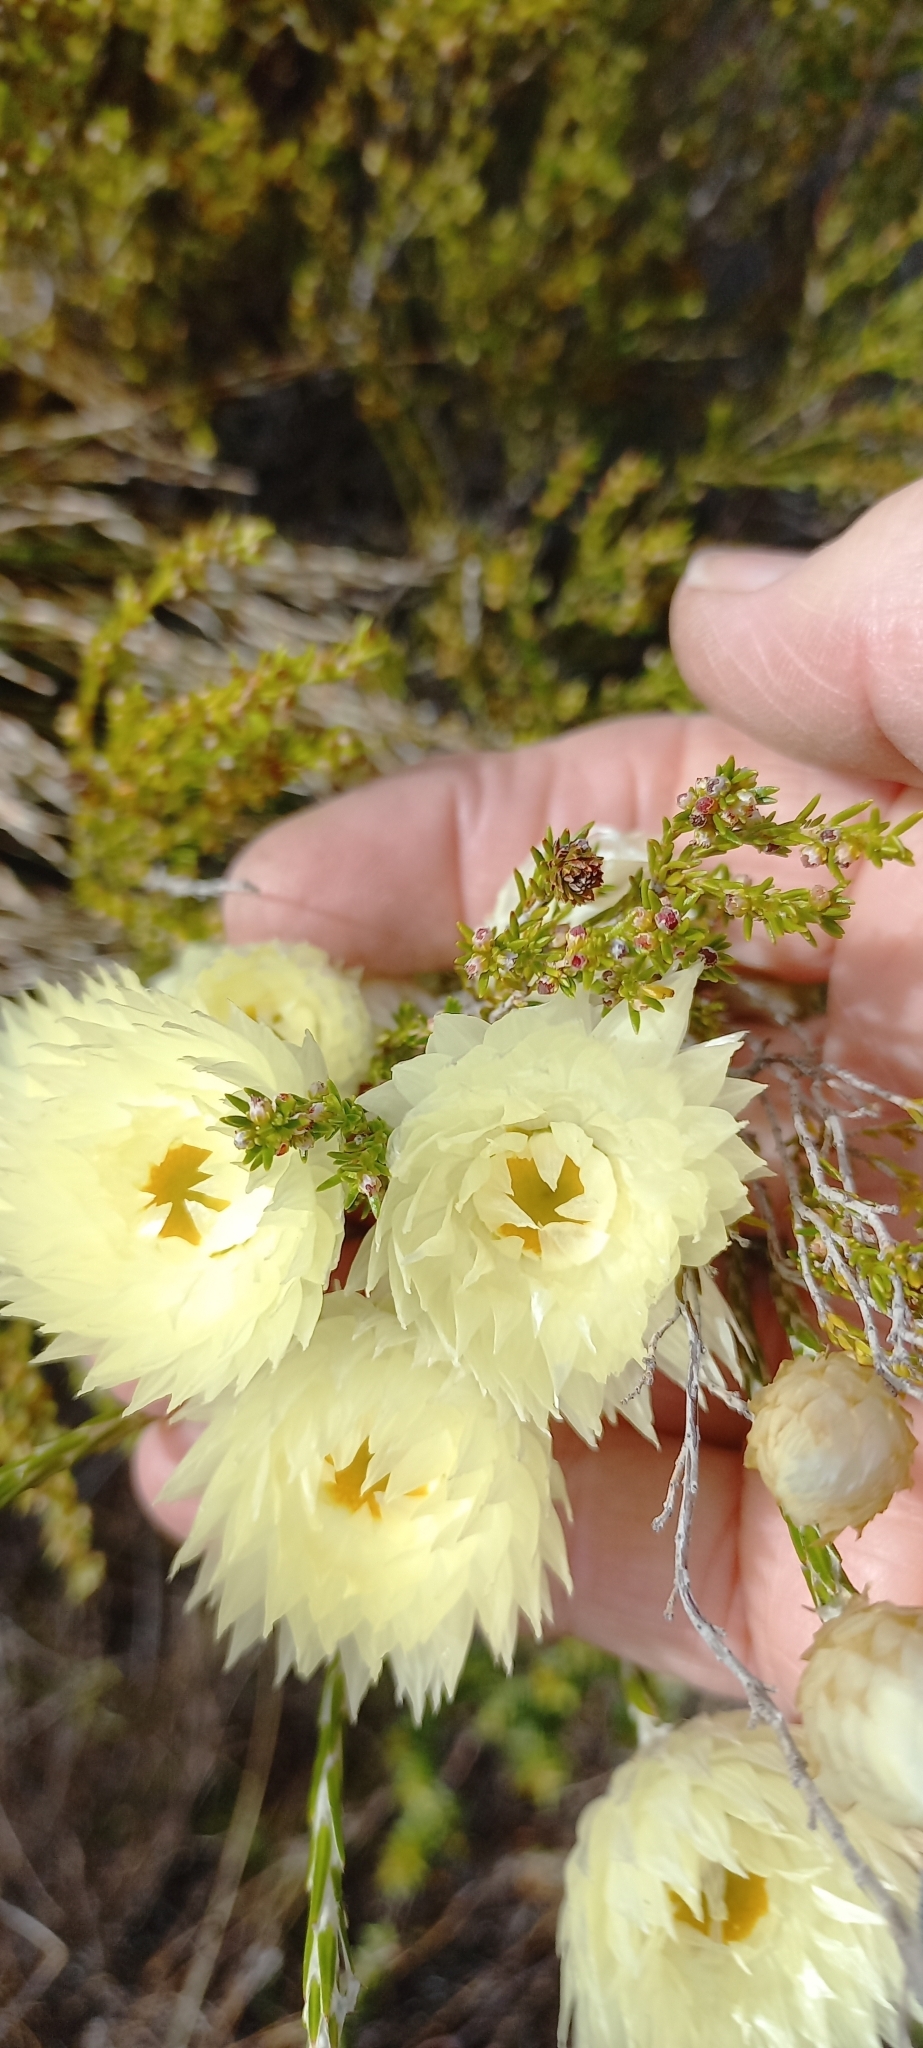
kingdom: Plantae
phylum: Tracheophyta
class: Magnoliopsida
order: Asterales
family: Asteraceae
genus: Edmondia
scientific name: Edmondia sesamoides
